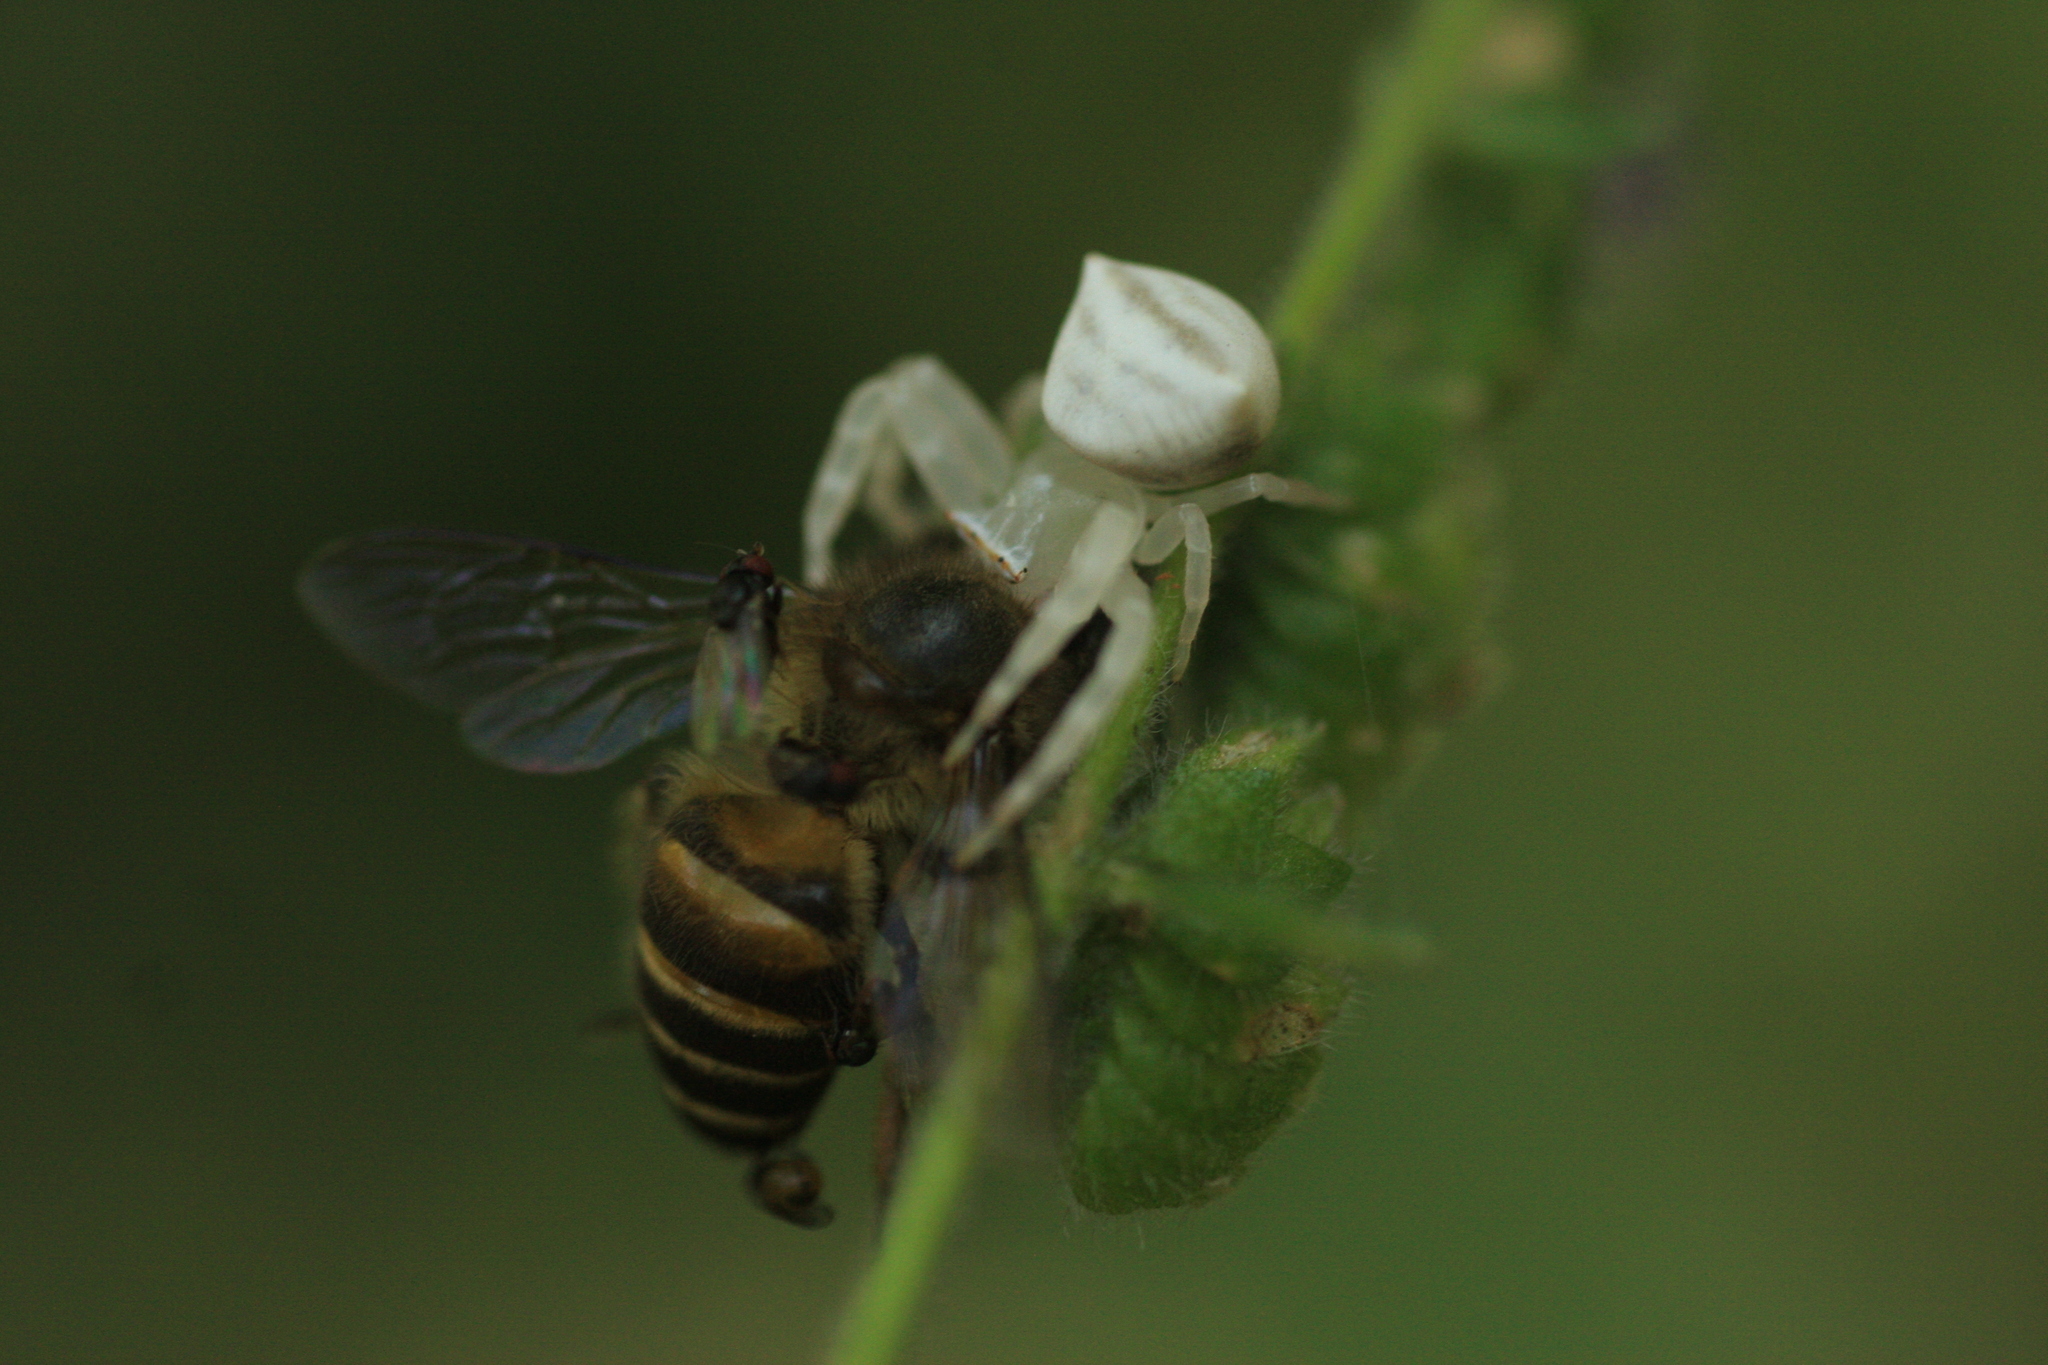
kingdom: Animalia
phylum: Arthropoda
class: Arachnida
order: Araneae
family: Thomisidae
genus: Thomisus
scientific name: Thomisus spectabilis
